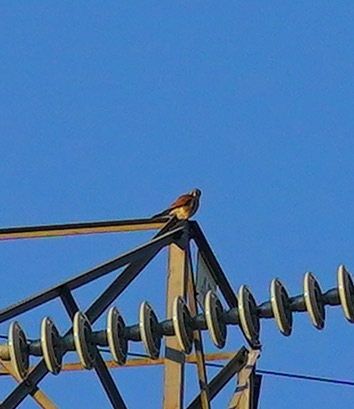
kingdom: Animalia
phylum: Chordata
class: Aves
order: Falconiformes
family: Falconidae
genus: Falco
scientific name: Falco sparverius
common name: American kestrel
